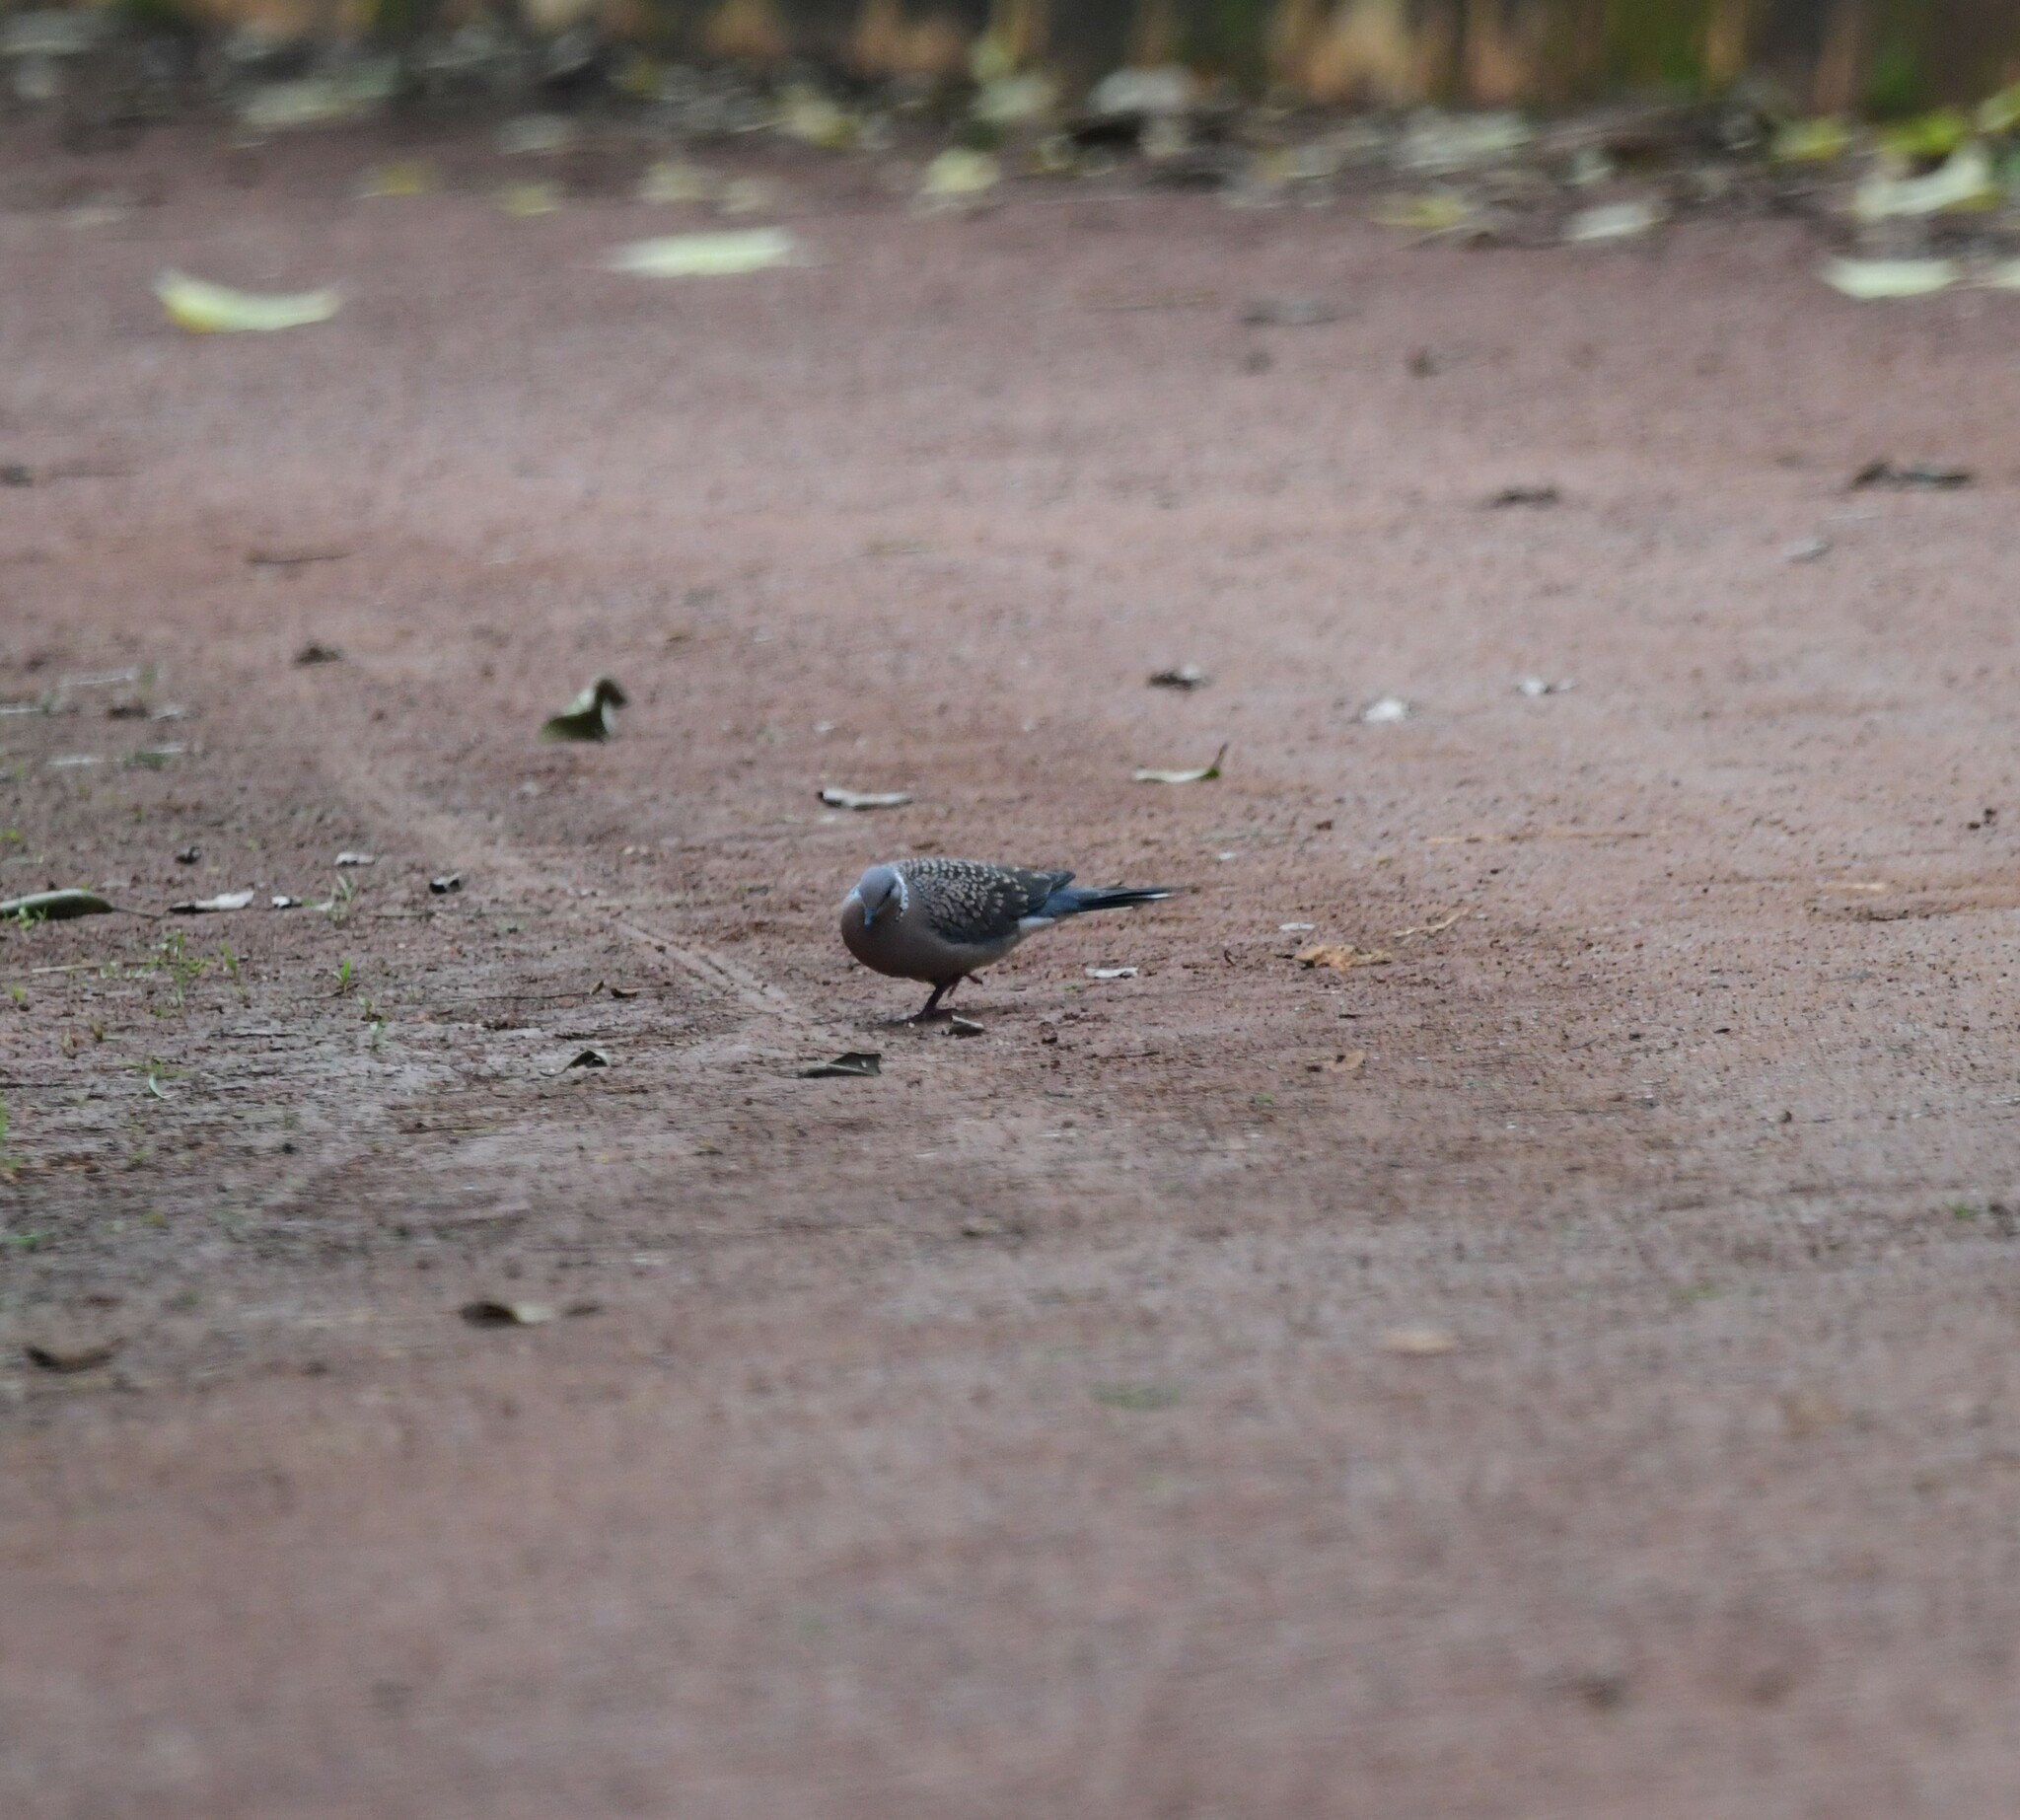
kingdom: Animalia
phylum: Chordata
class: Aves
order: Columbiformes
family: Columbidae
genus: Spilopelia
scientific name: Spilopelia chinensis
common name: Spotted dove
